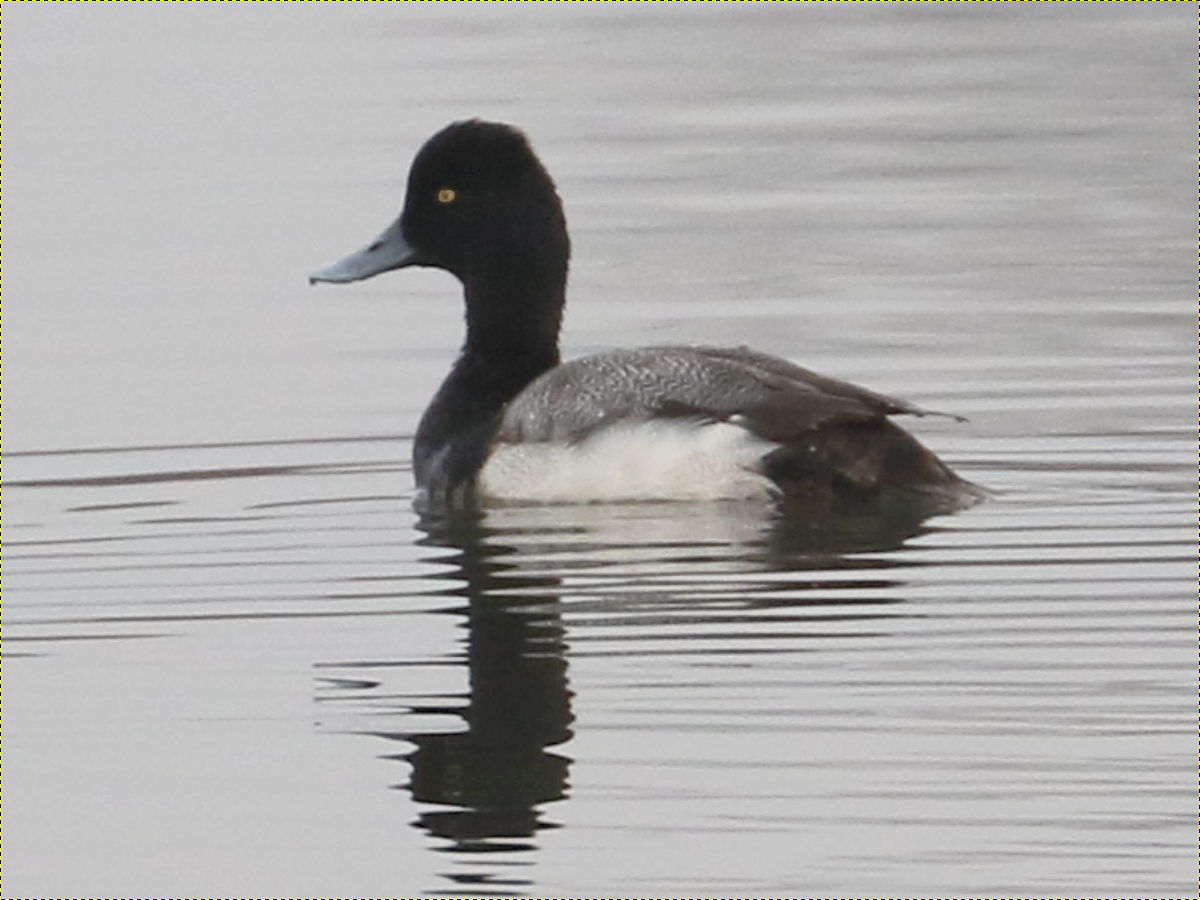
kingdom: Animalia
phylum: Chordata
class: Aves
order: Anseriformes
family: Anatidae
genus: Aythya
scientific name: Aythya affinis
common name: Lesser scaup
